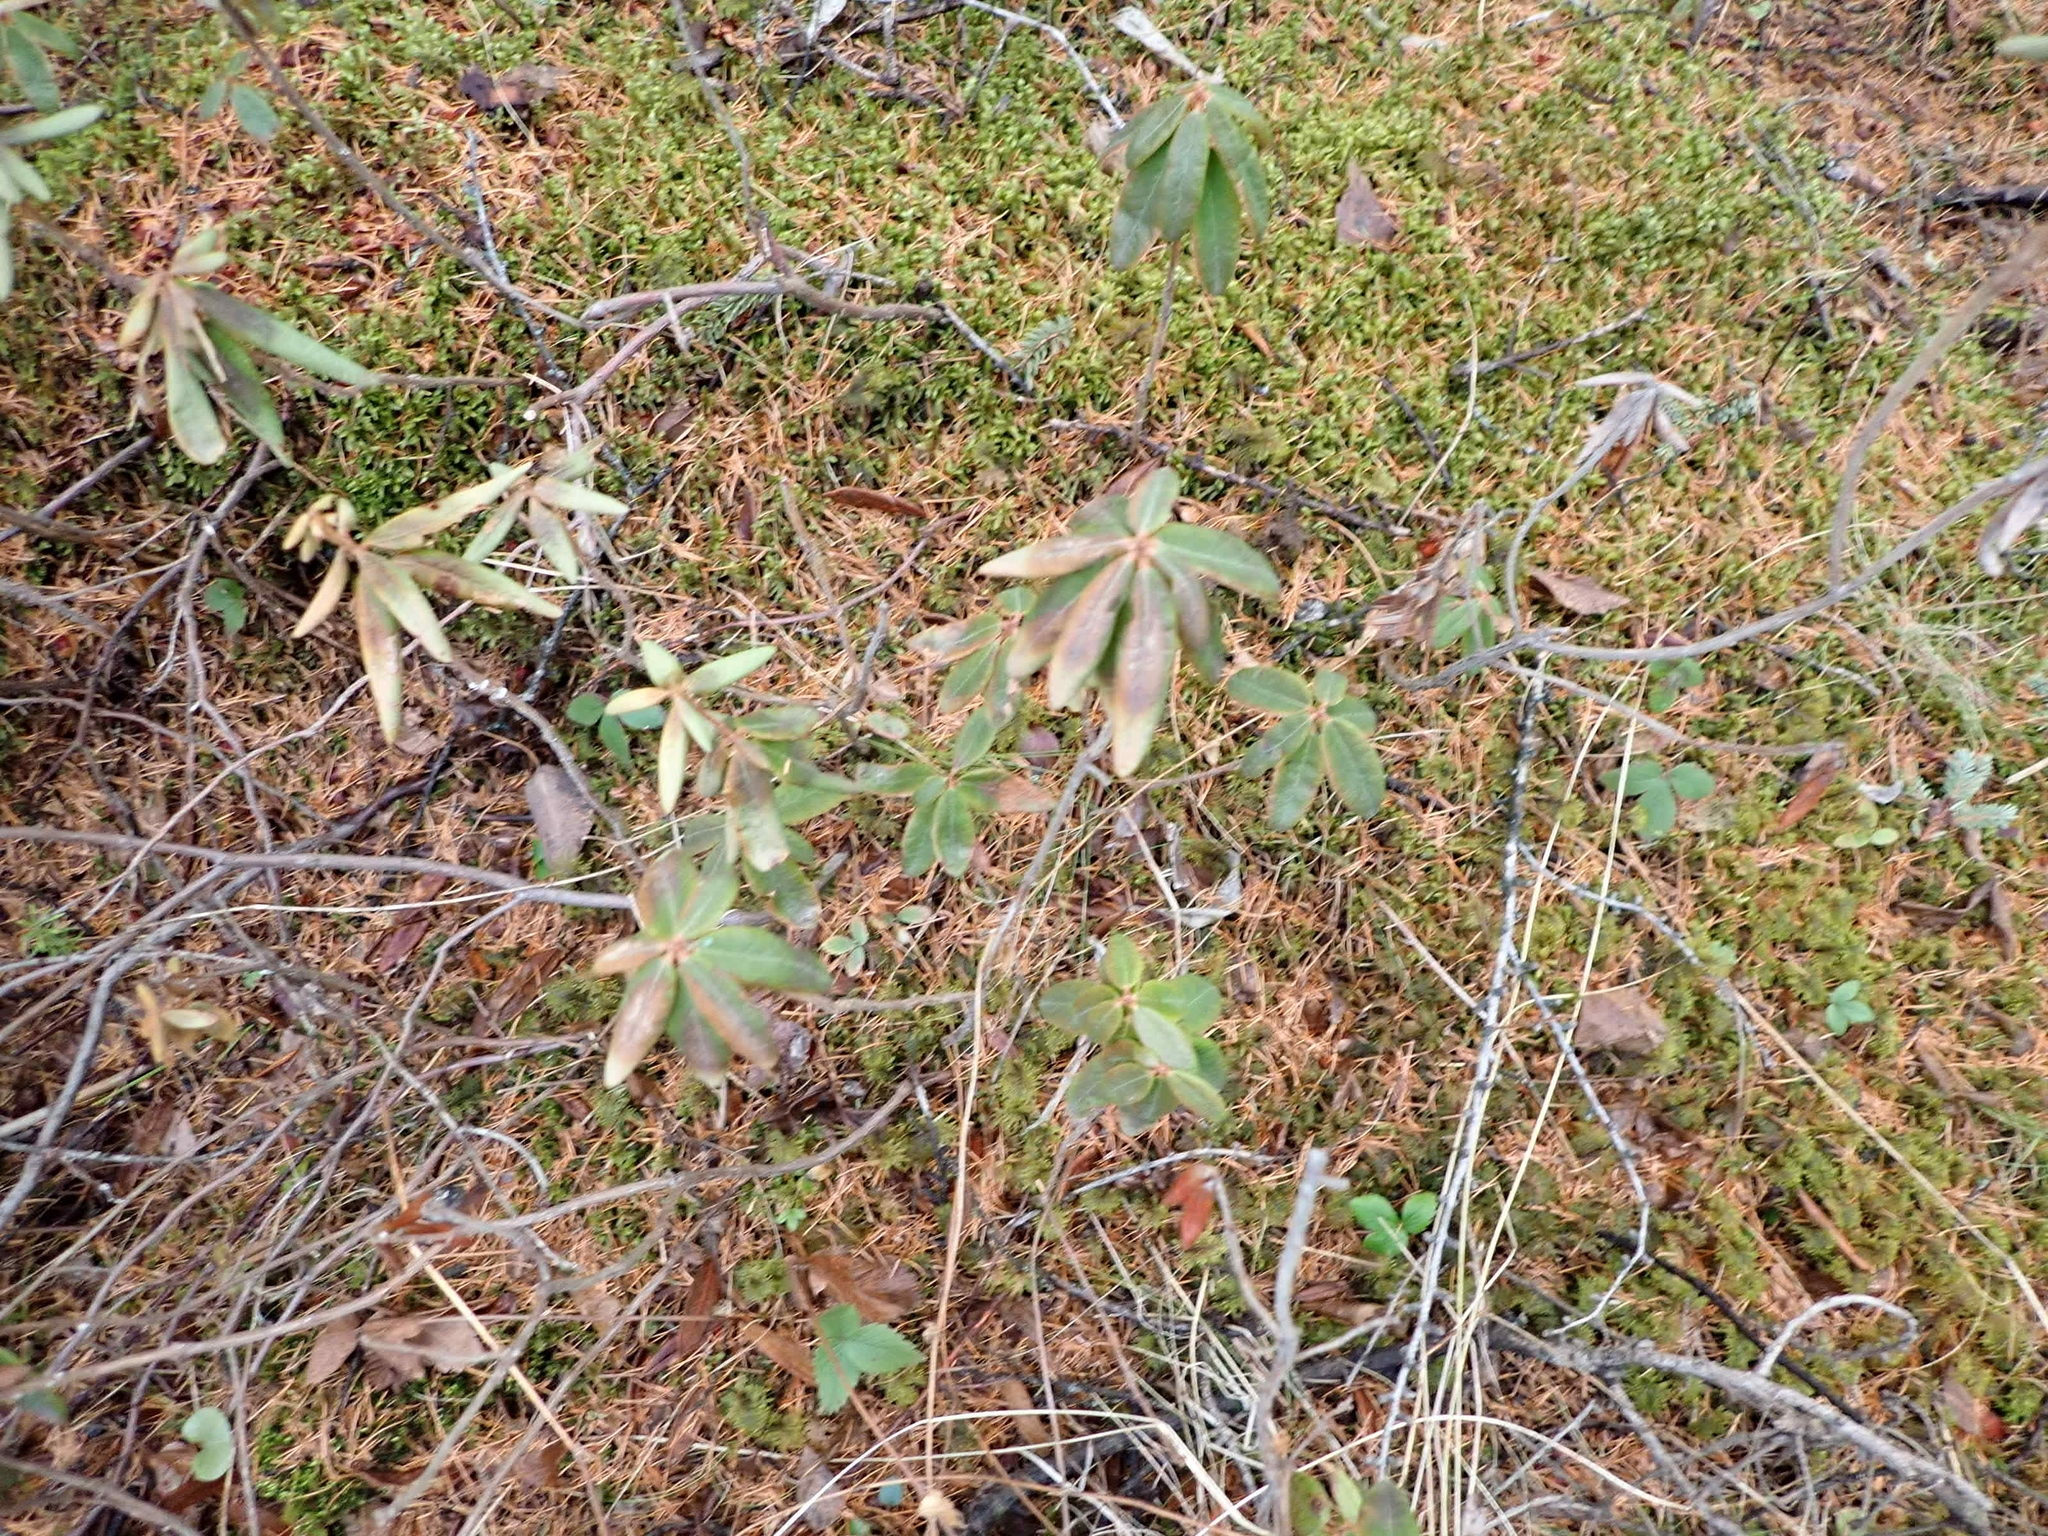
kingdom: Plantae
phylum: Tracheophyta
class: Magnoliopsida
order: Ericales
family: Ericaceae
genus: Rhododendron
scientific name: Rhododendron groenlandicum
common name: Bog labrador tea
